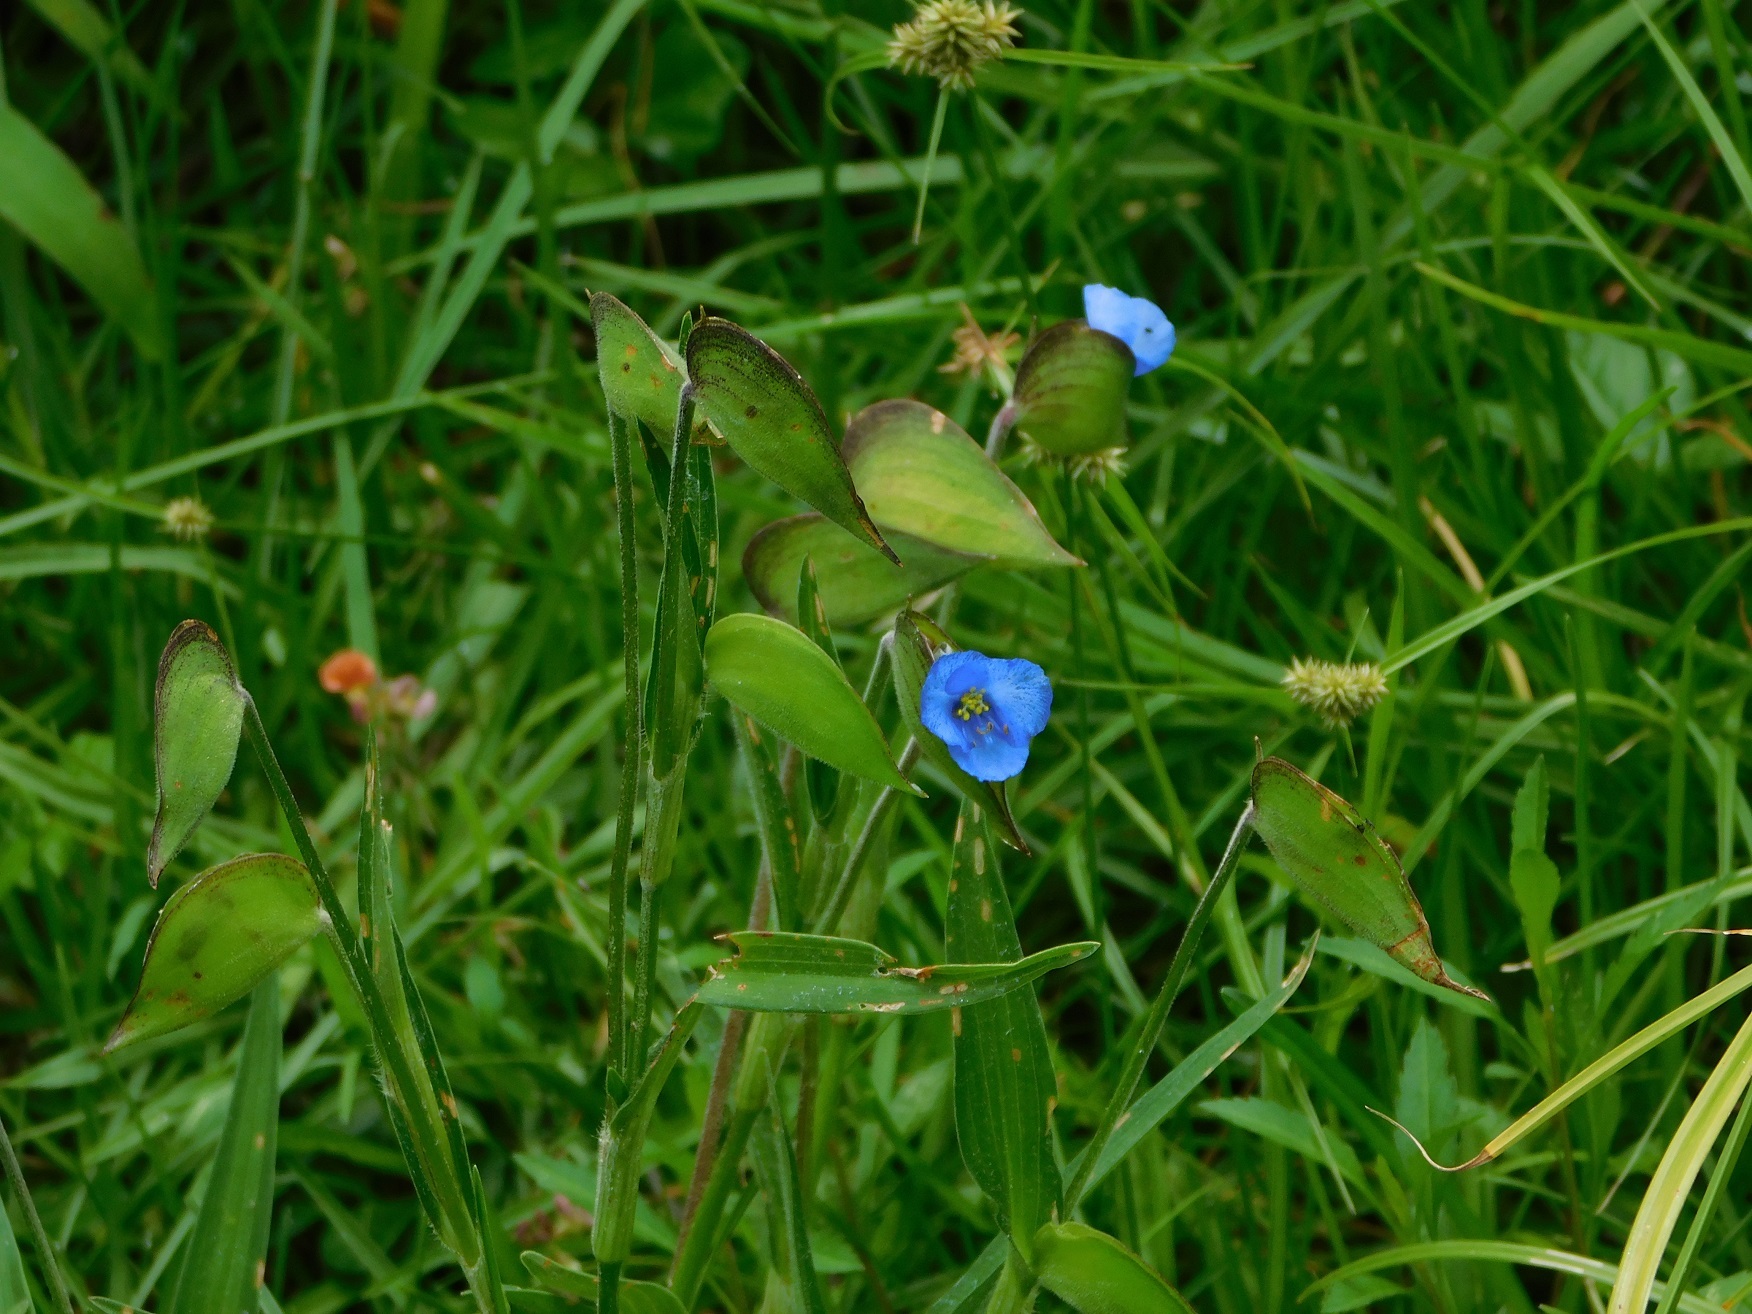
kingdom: Plantae
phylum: Tracheophyta
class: Liliopsida
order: Commelinales
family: Commelinaceae
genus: Commelina
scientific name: Commelina tuberosa
